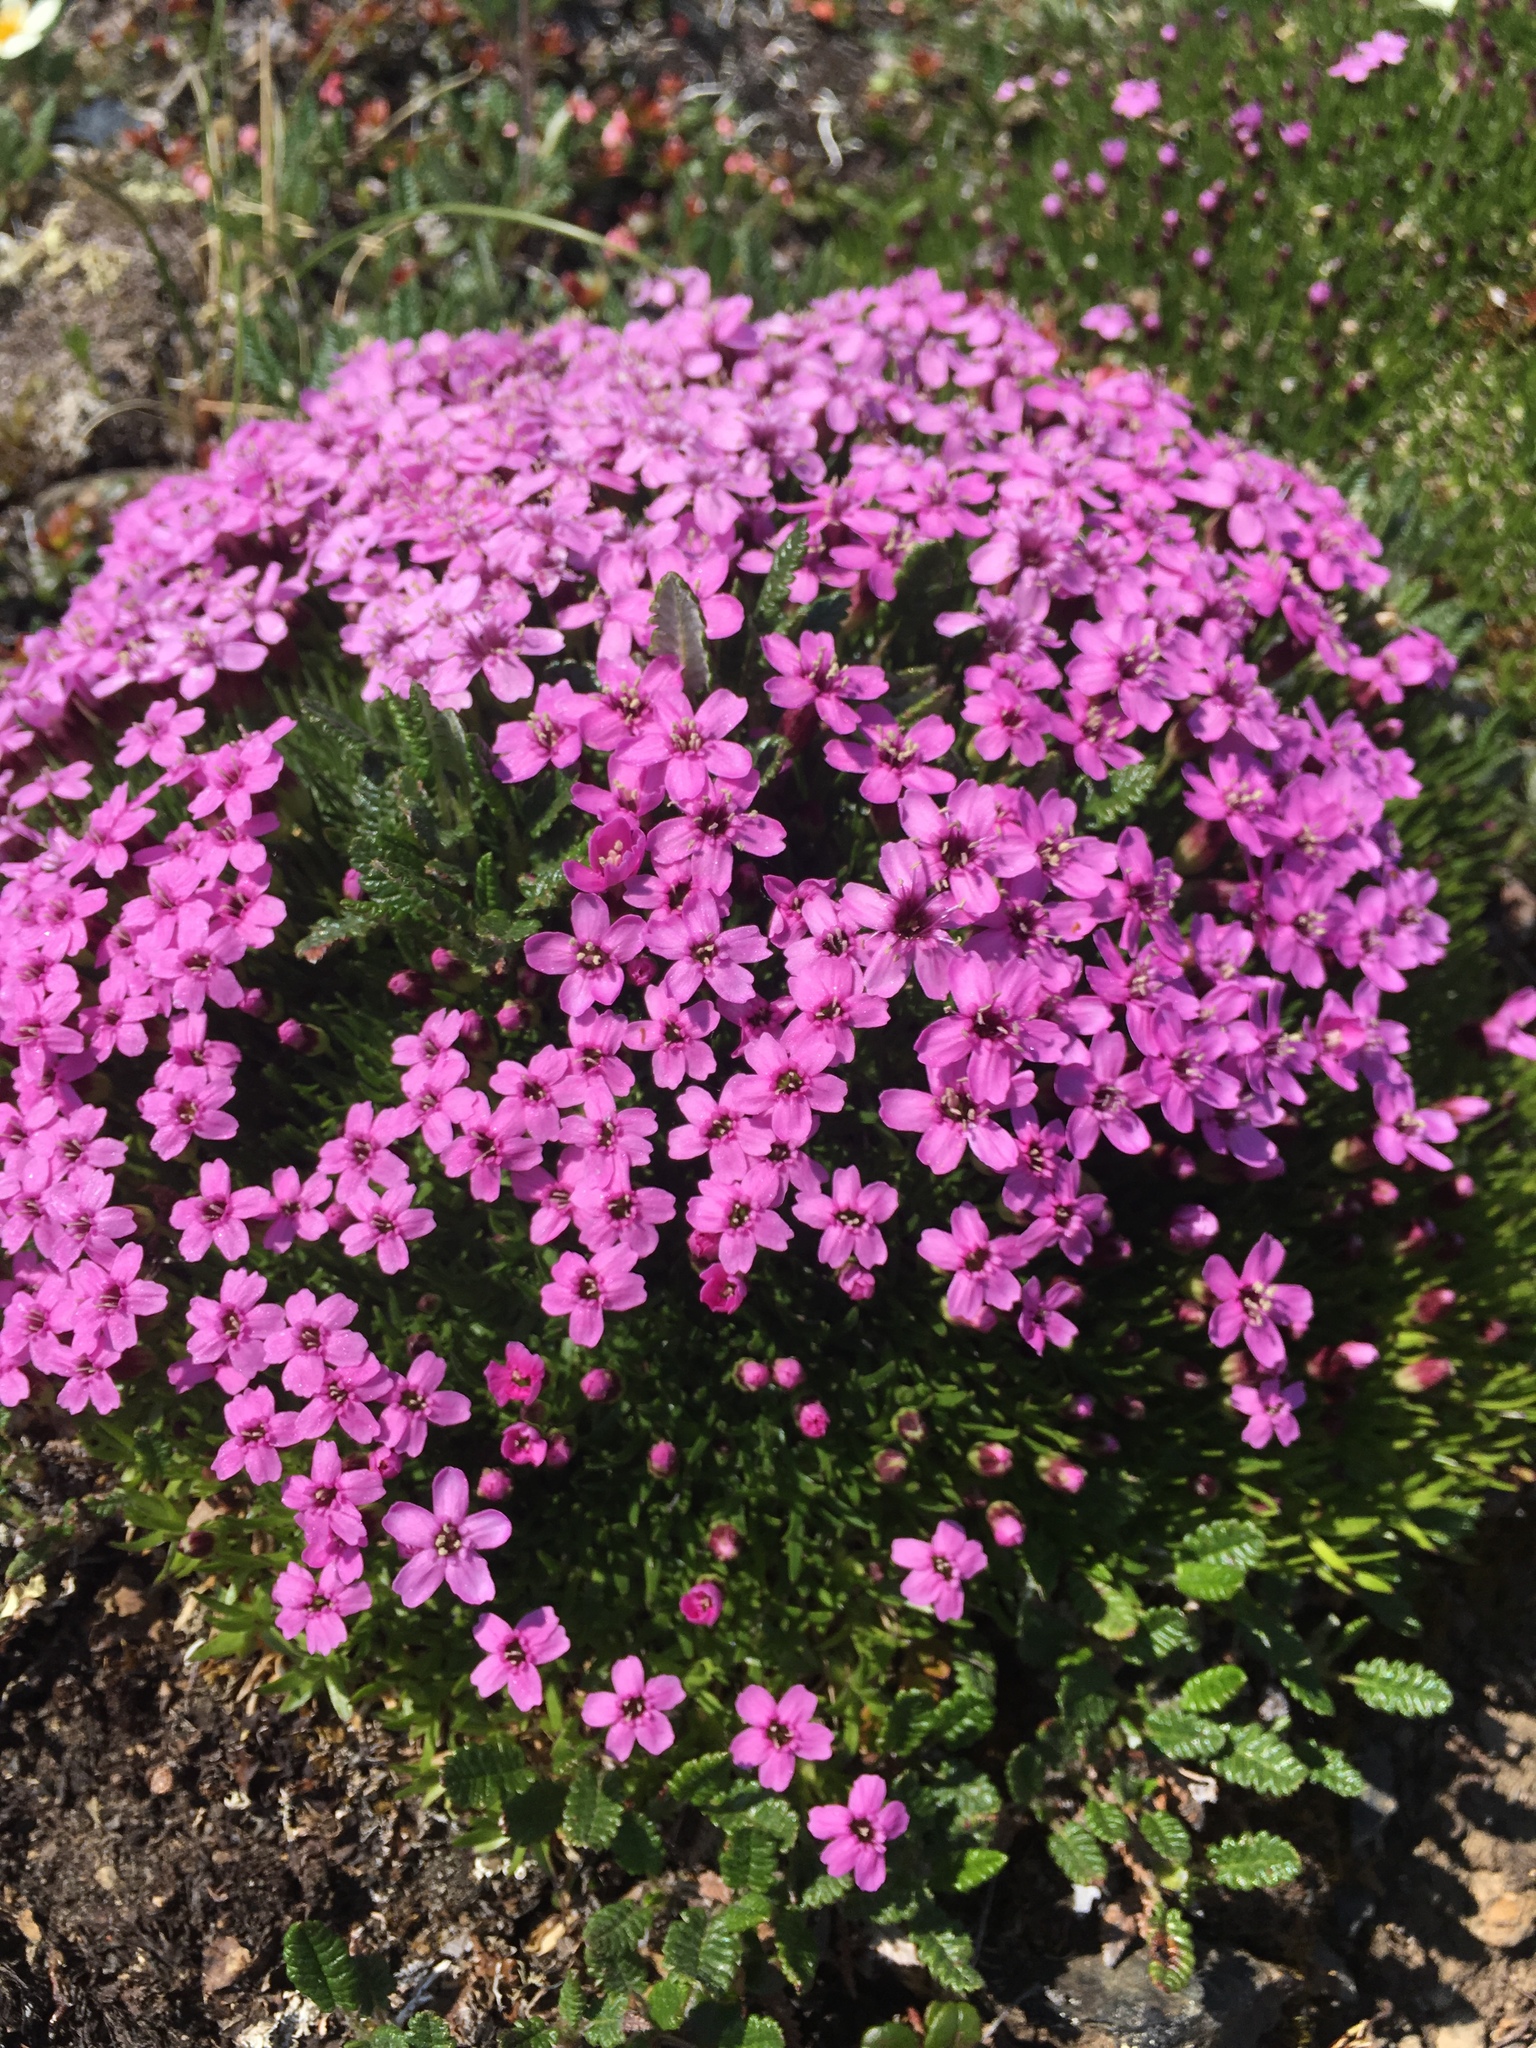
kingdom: Plantae
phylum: Tracheophyta
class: Magnoliopsida
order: Caryophyllales
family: Caryophyllaceae
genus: Silene
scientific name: Silene acaulis
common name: Moss campion
